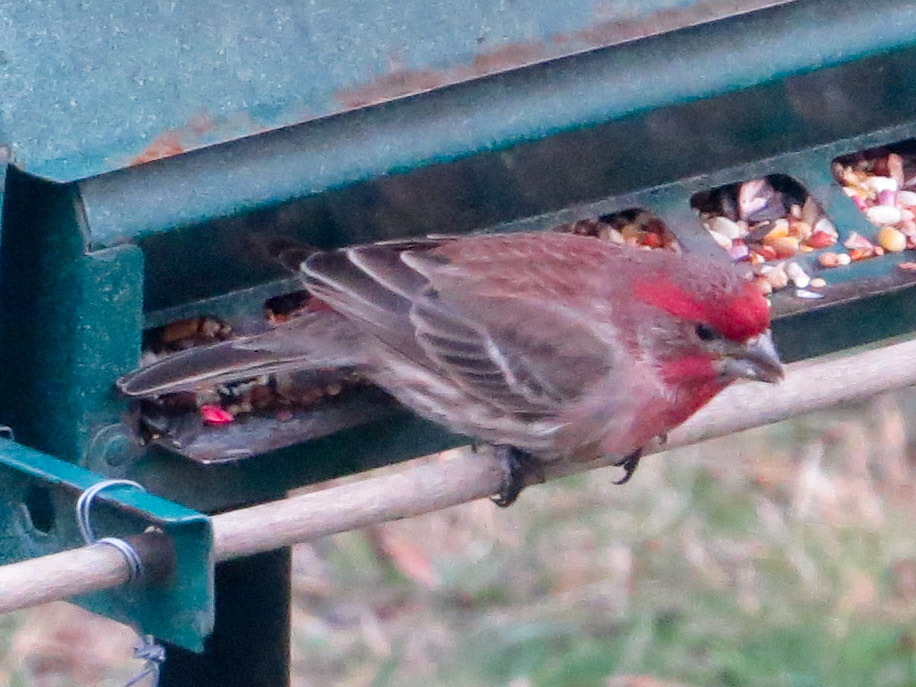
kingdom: Animalia
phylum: Chordata
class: Aves
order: Passeriformes
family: Fringillidae
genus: Haemorhous
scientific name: Haemorhous mexicanus
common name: House finch
